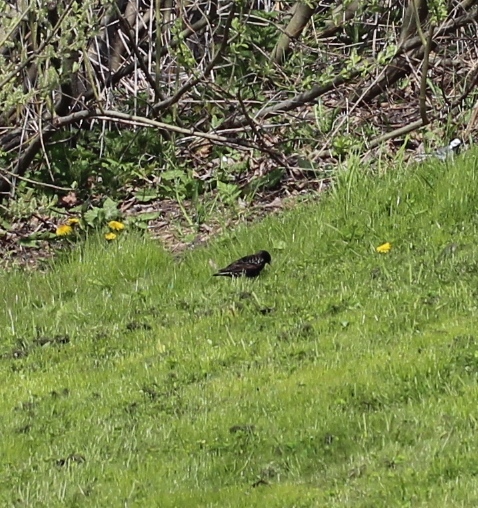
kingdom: Animalia
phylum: Chordata
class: Aves
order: Passeriformes
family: Sturnidae
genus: Sturnus
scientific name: Sturnus vulgaris
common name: Common starling
